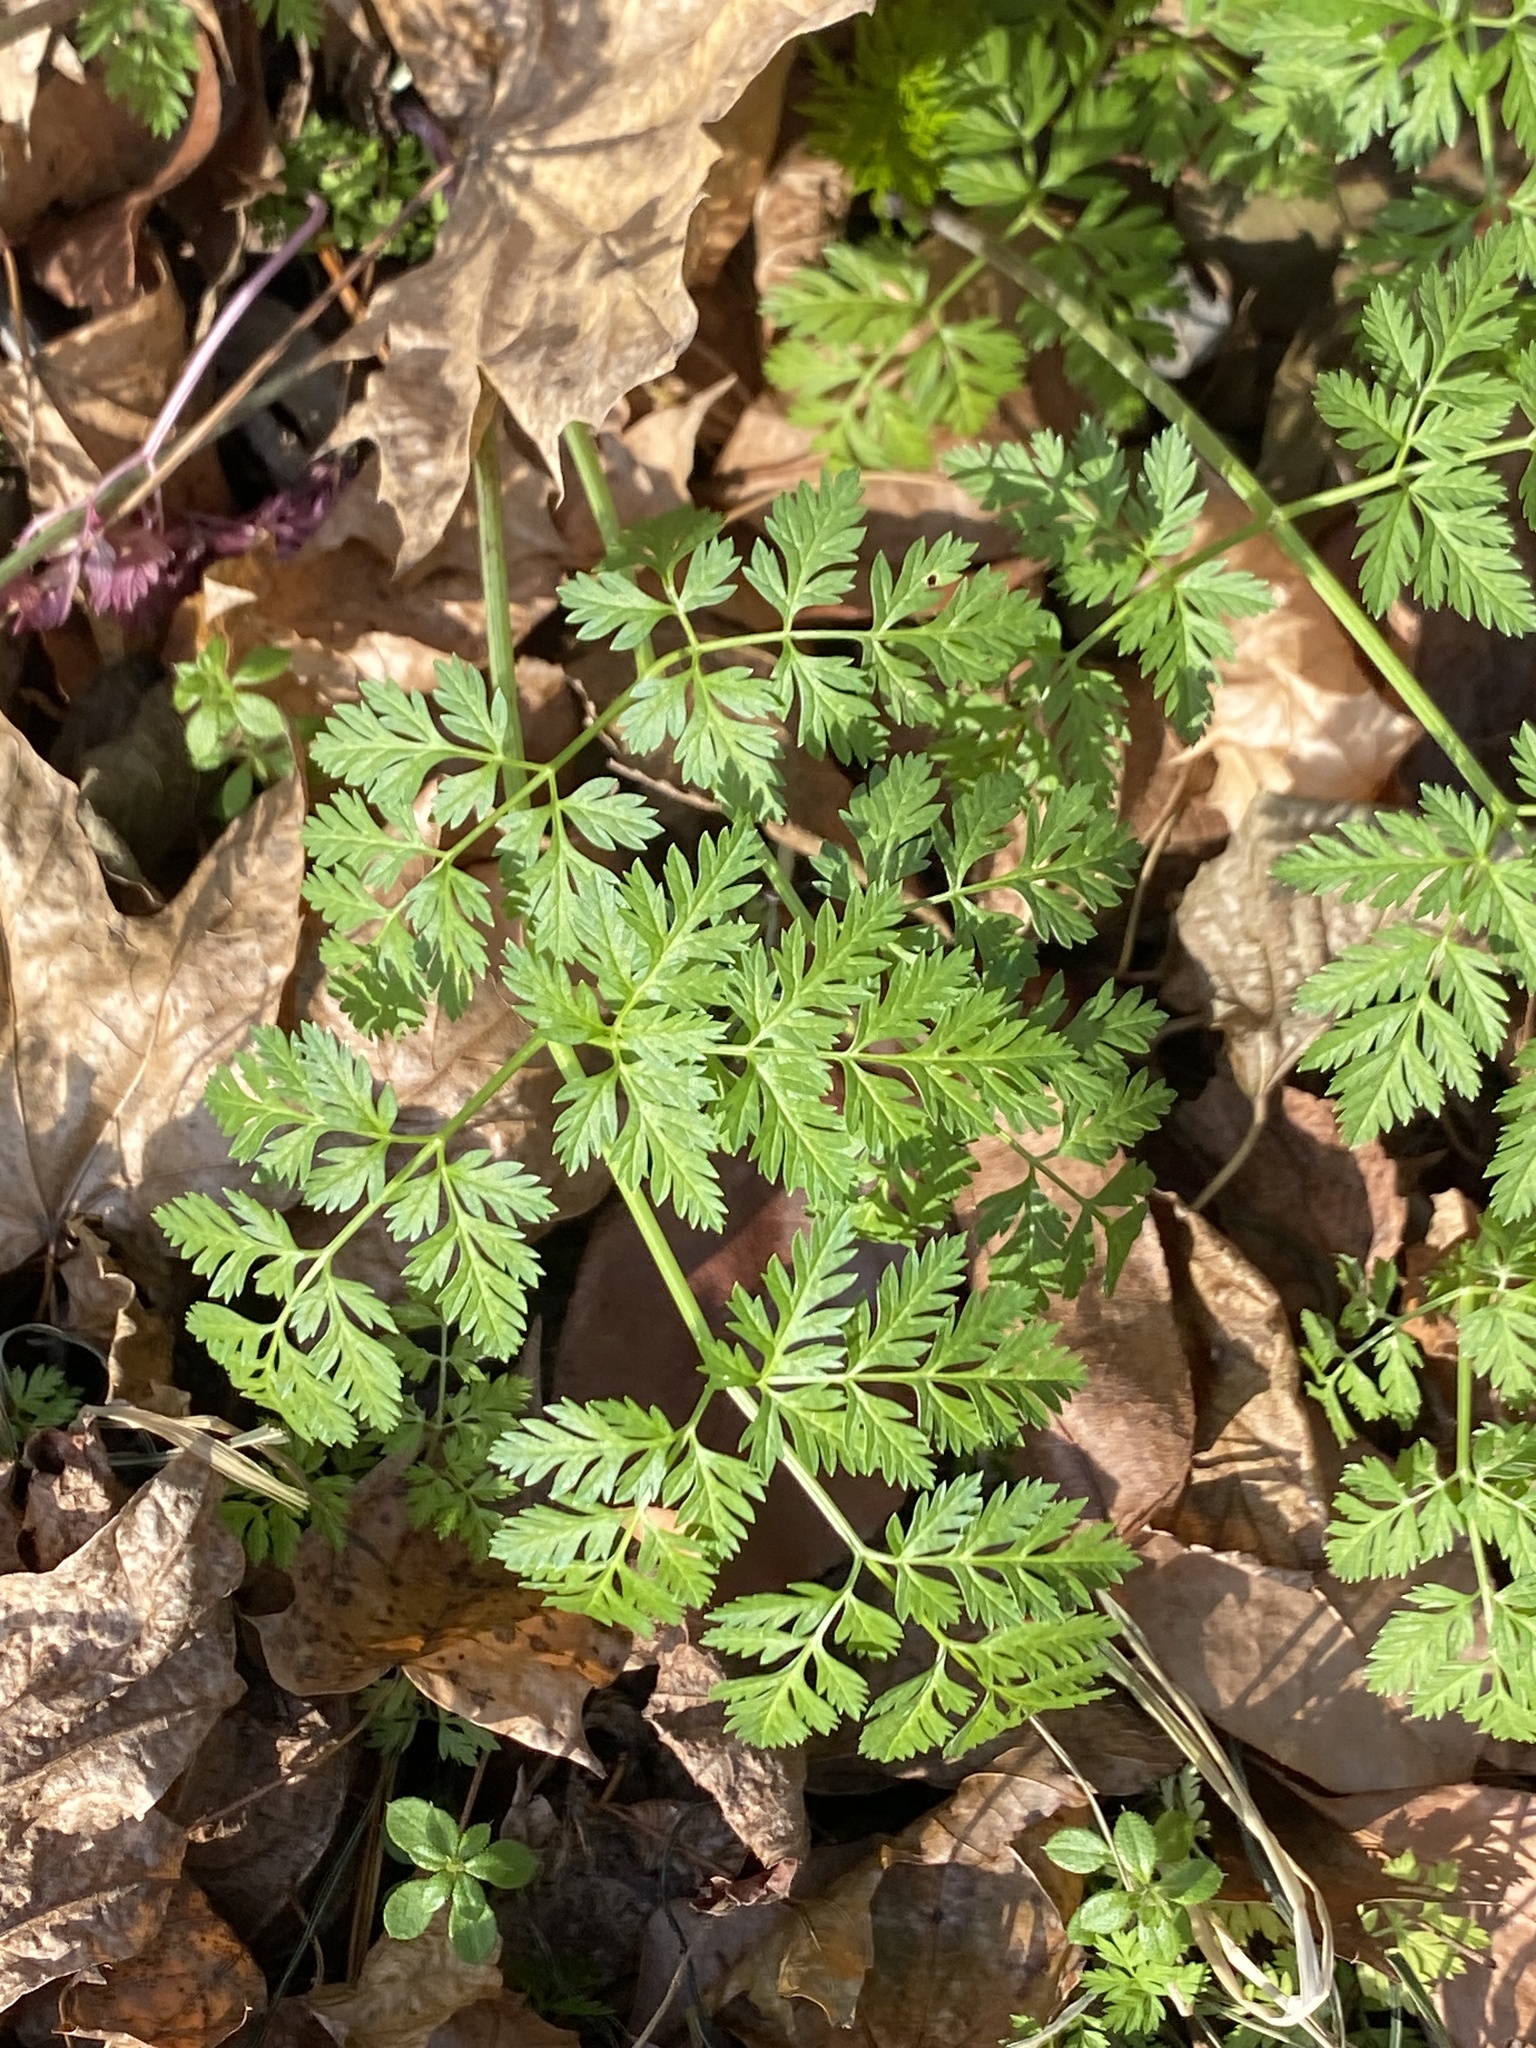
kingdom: Plantae
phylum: Tracheophyta
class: Magnoliopsida
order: Apiales
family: Apiaceae
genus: Conium
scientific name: Conium maculatum
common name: Hemlock
